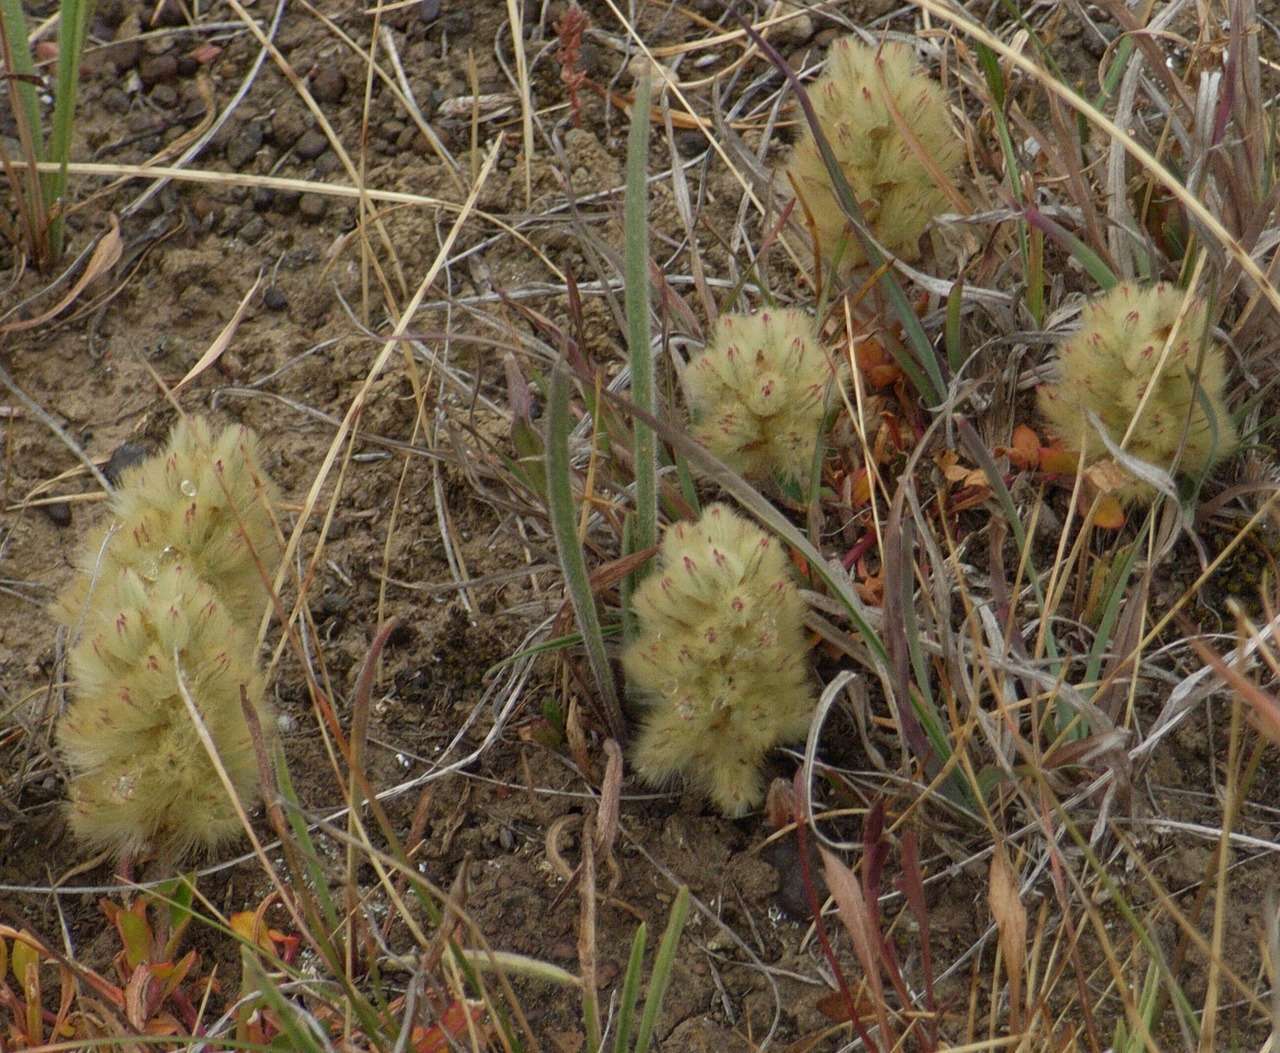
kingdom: Plantae
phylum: Tracheophyta
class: Magnoliopsida
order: Caryophyllales
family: Amaranthaceae
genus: Ptilotus
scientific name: Ptilotus spathulatus
